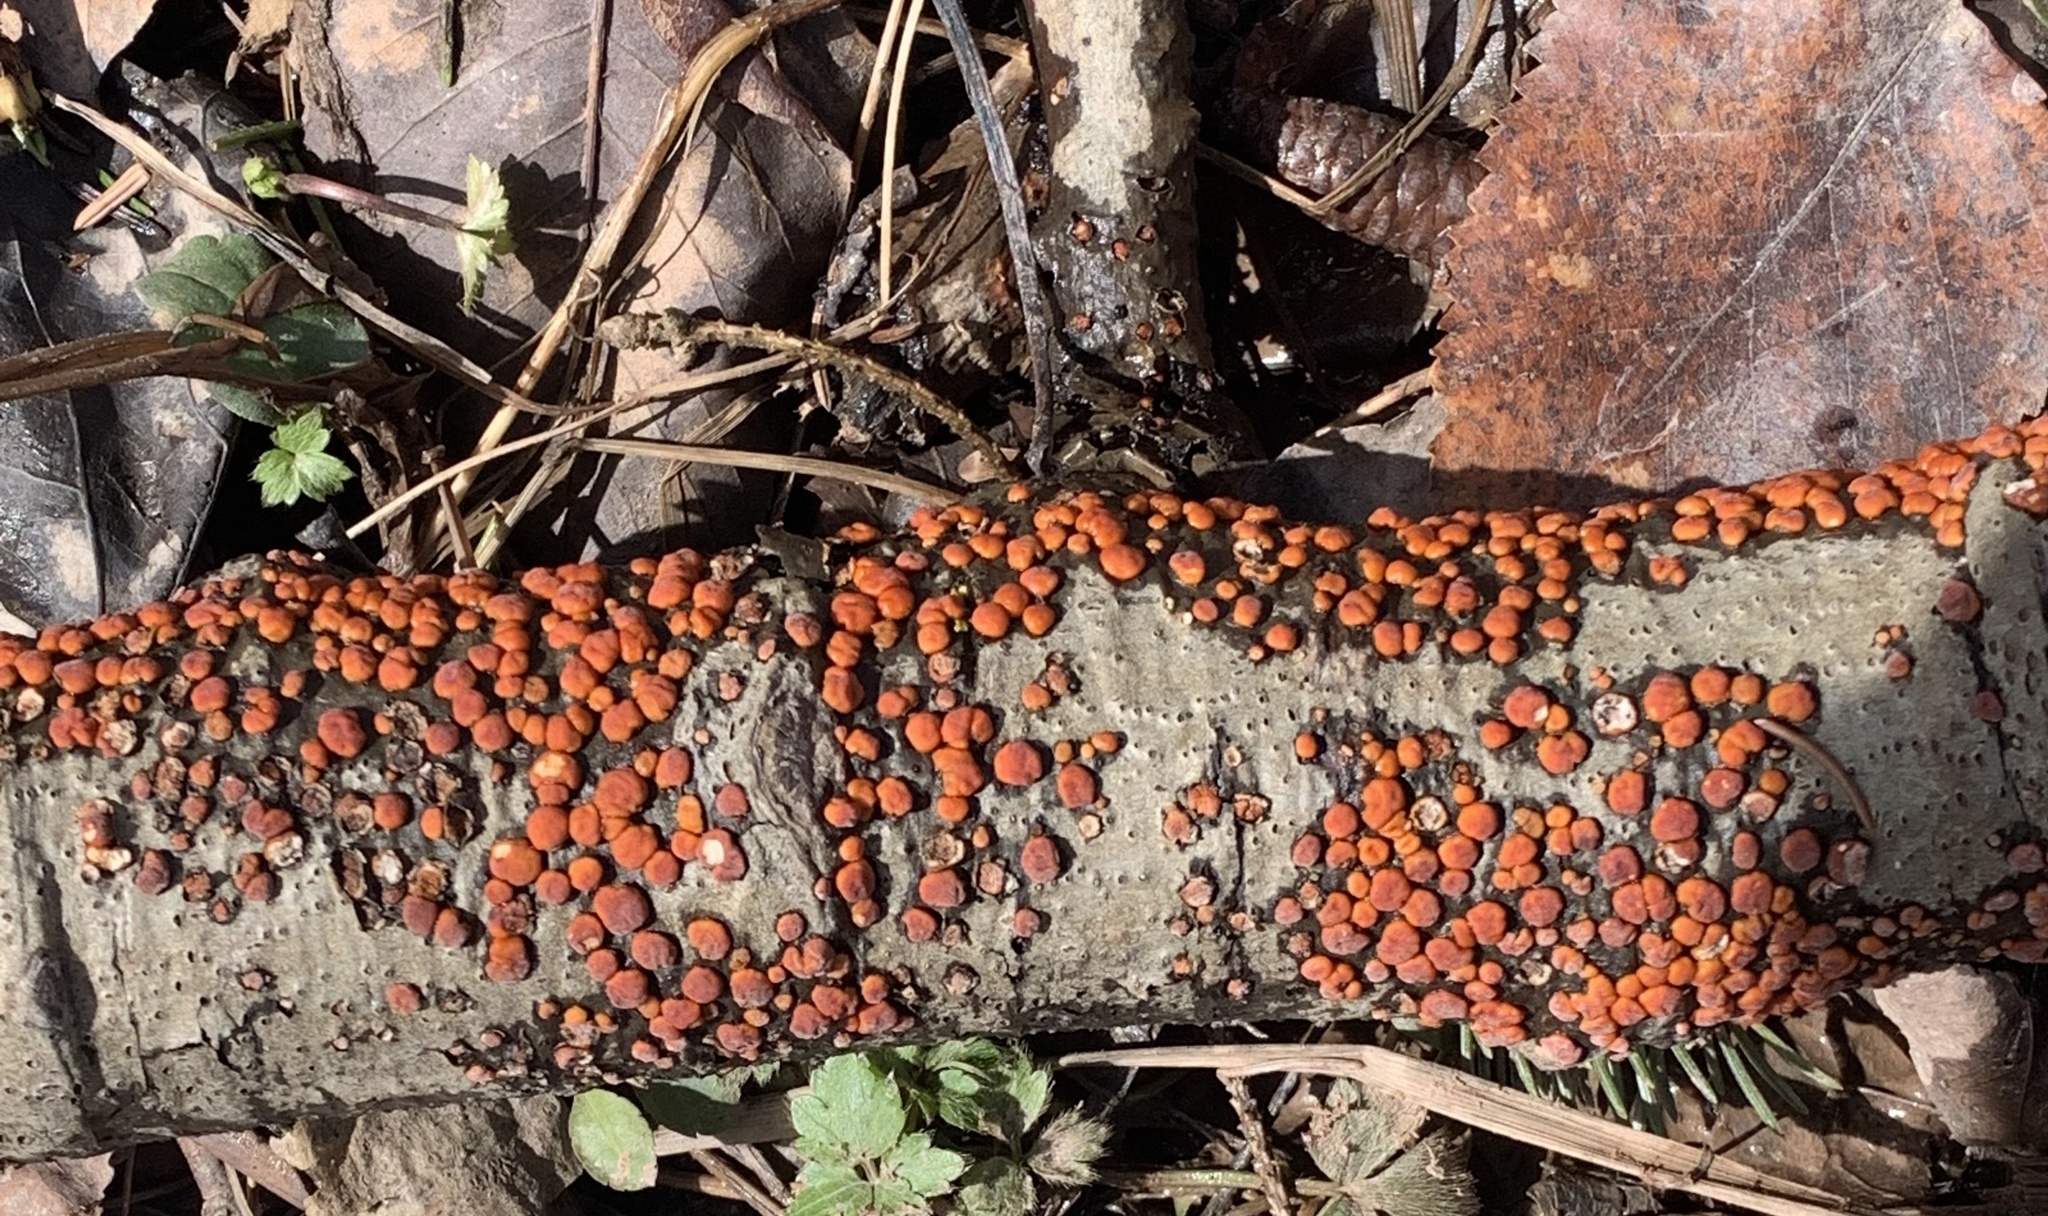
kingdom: Fungi
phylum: Basidiomycota
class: Agaricomycetes
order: Russulales
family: Peniophoraceae
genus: Peniophora
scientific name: Peniophora rufa
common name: Red tree brain fungus
